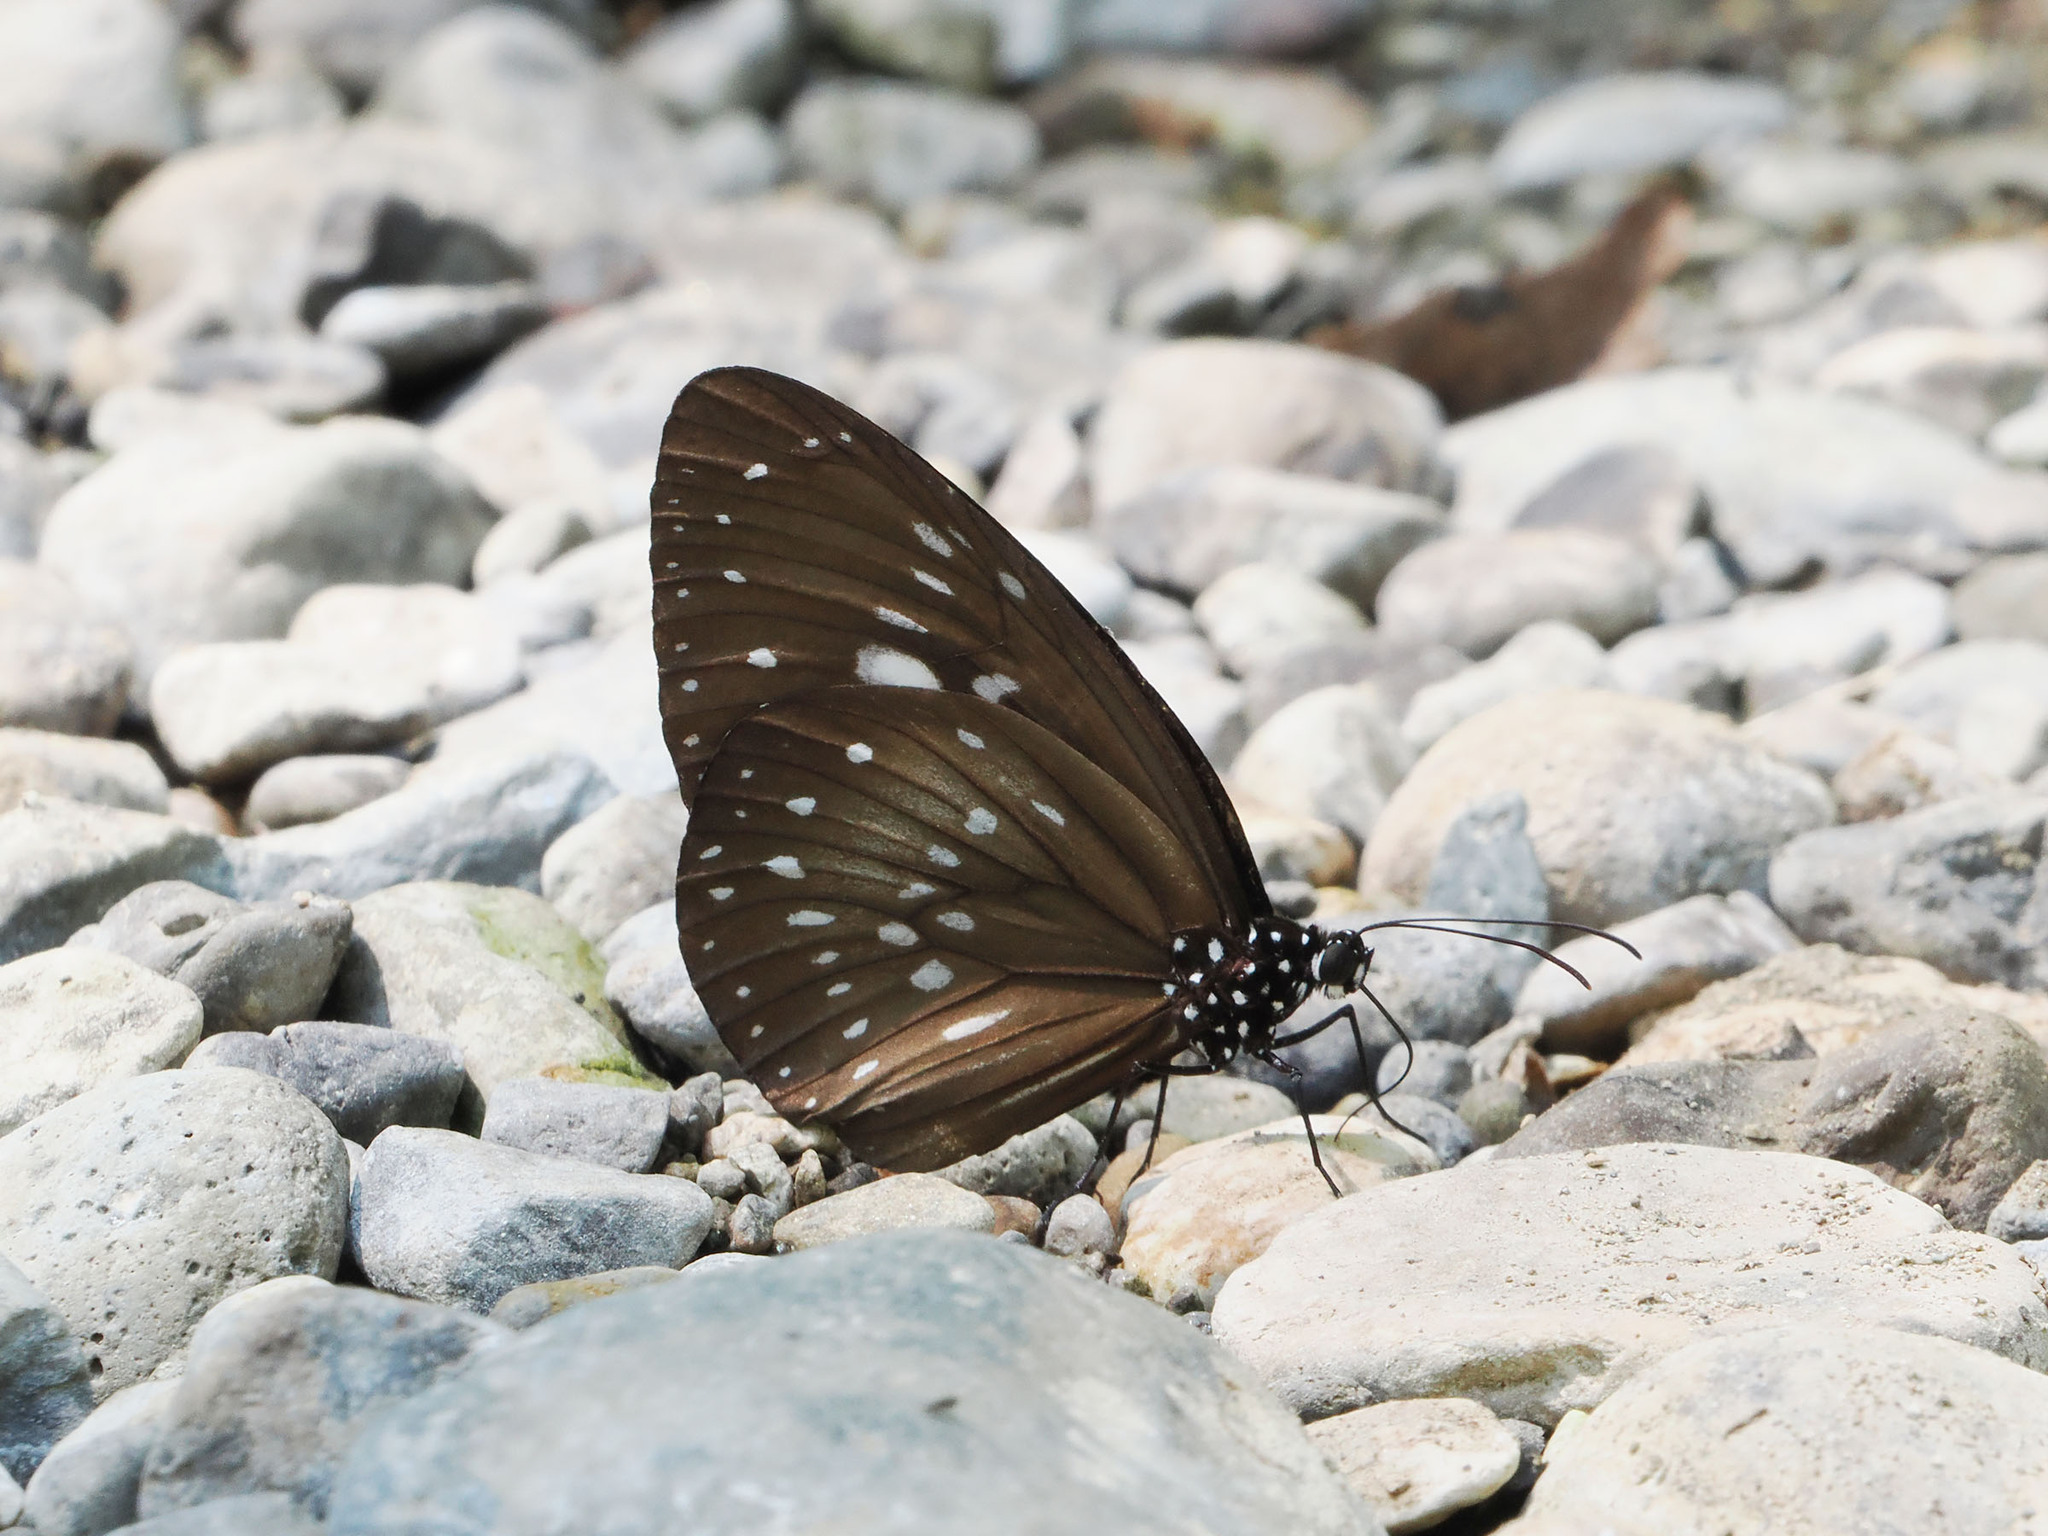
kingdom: Animalia
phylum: Arthropoda
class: Insecta
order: Lepidoptera
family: Nymphalidae
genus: Euploea
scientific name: Euploea algea
